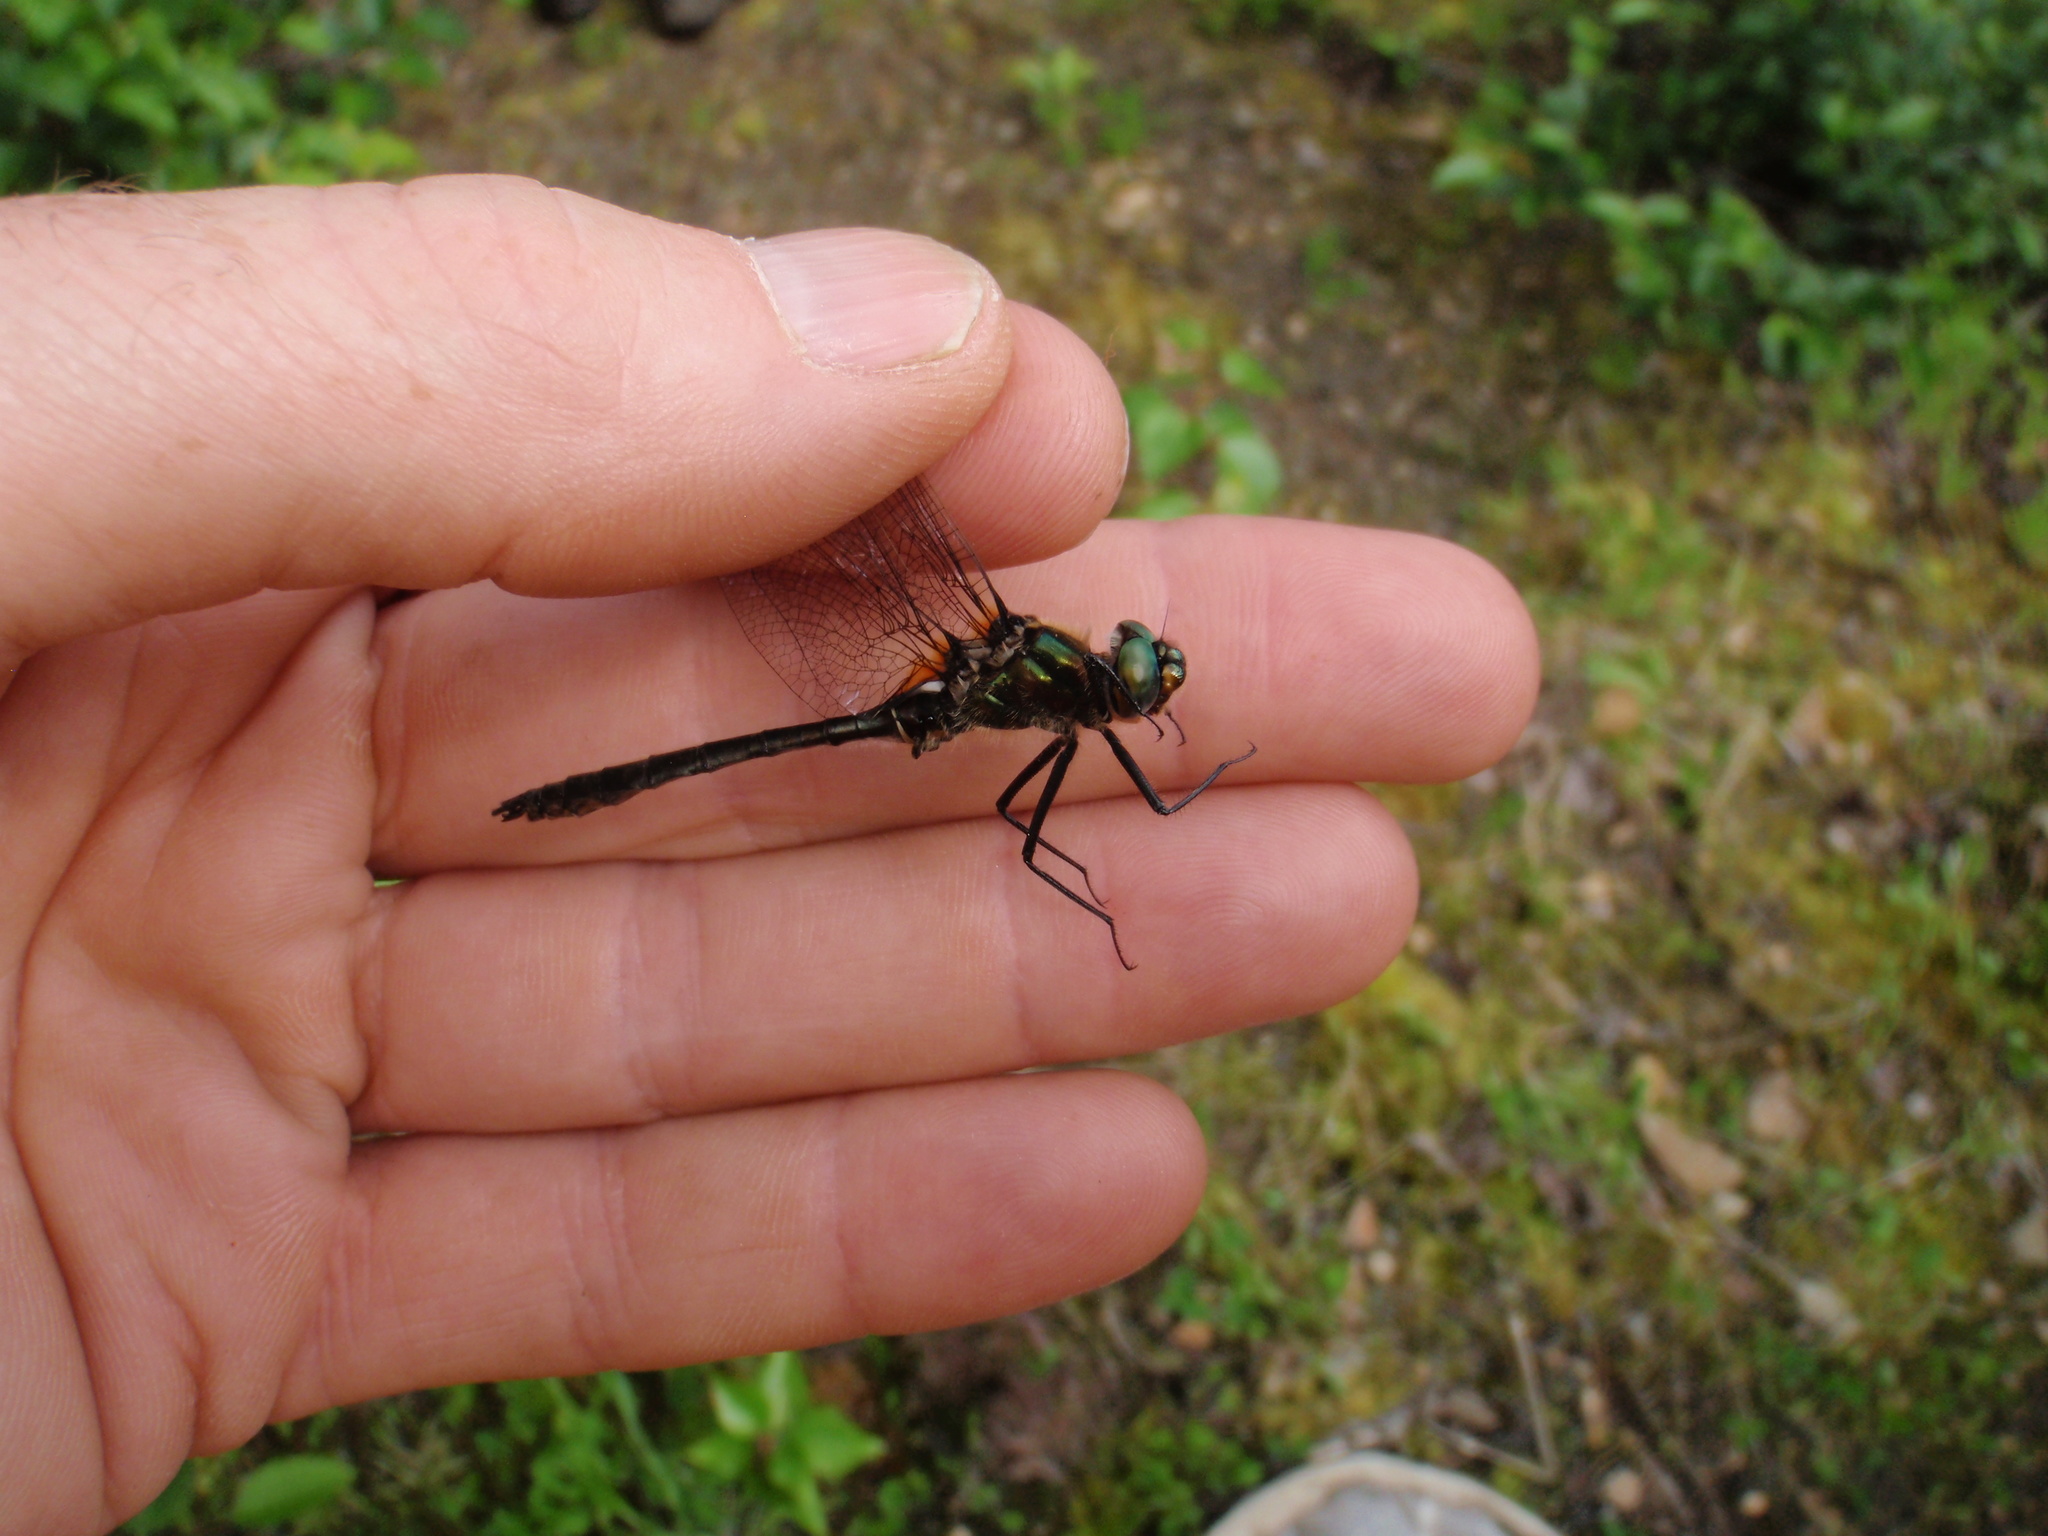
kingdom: Animalia
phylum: Arthropoda
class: Insecta
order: Odonata
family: Corduliidae
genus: Cordulia
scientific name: Cordulia shurtleffii
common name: American emerald
